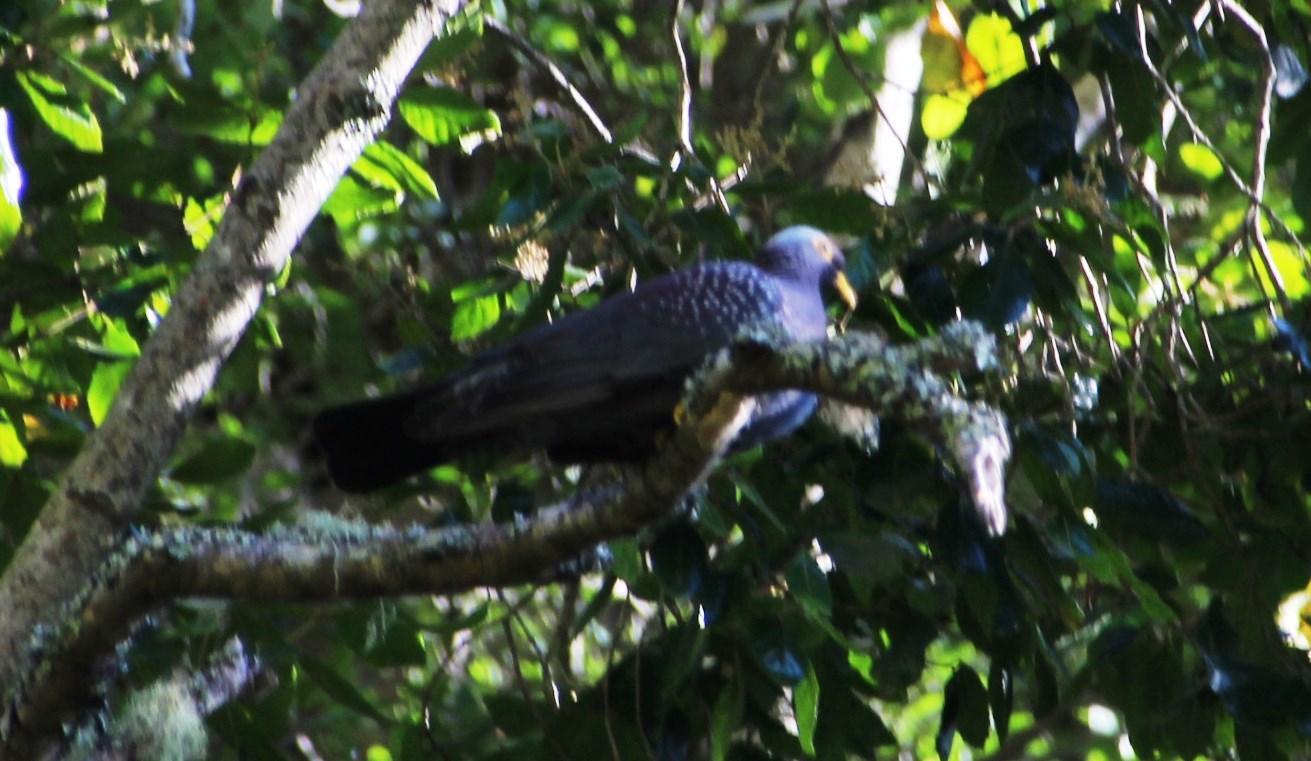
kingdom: Animalia
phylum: Chordata
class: Aves
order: Columbiformes
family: Columbidae
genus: Columba
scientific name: Columba arquatrix
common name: African olive pigeon
